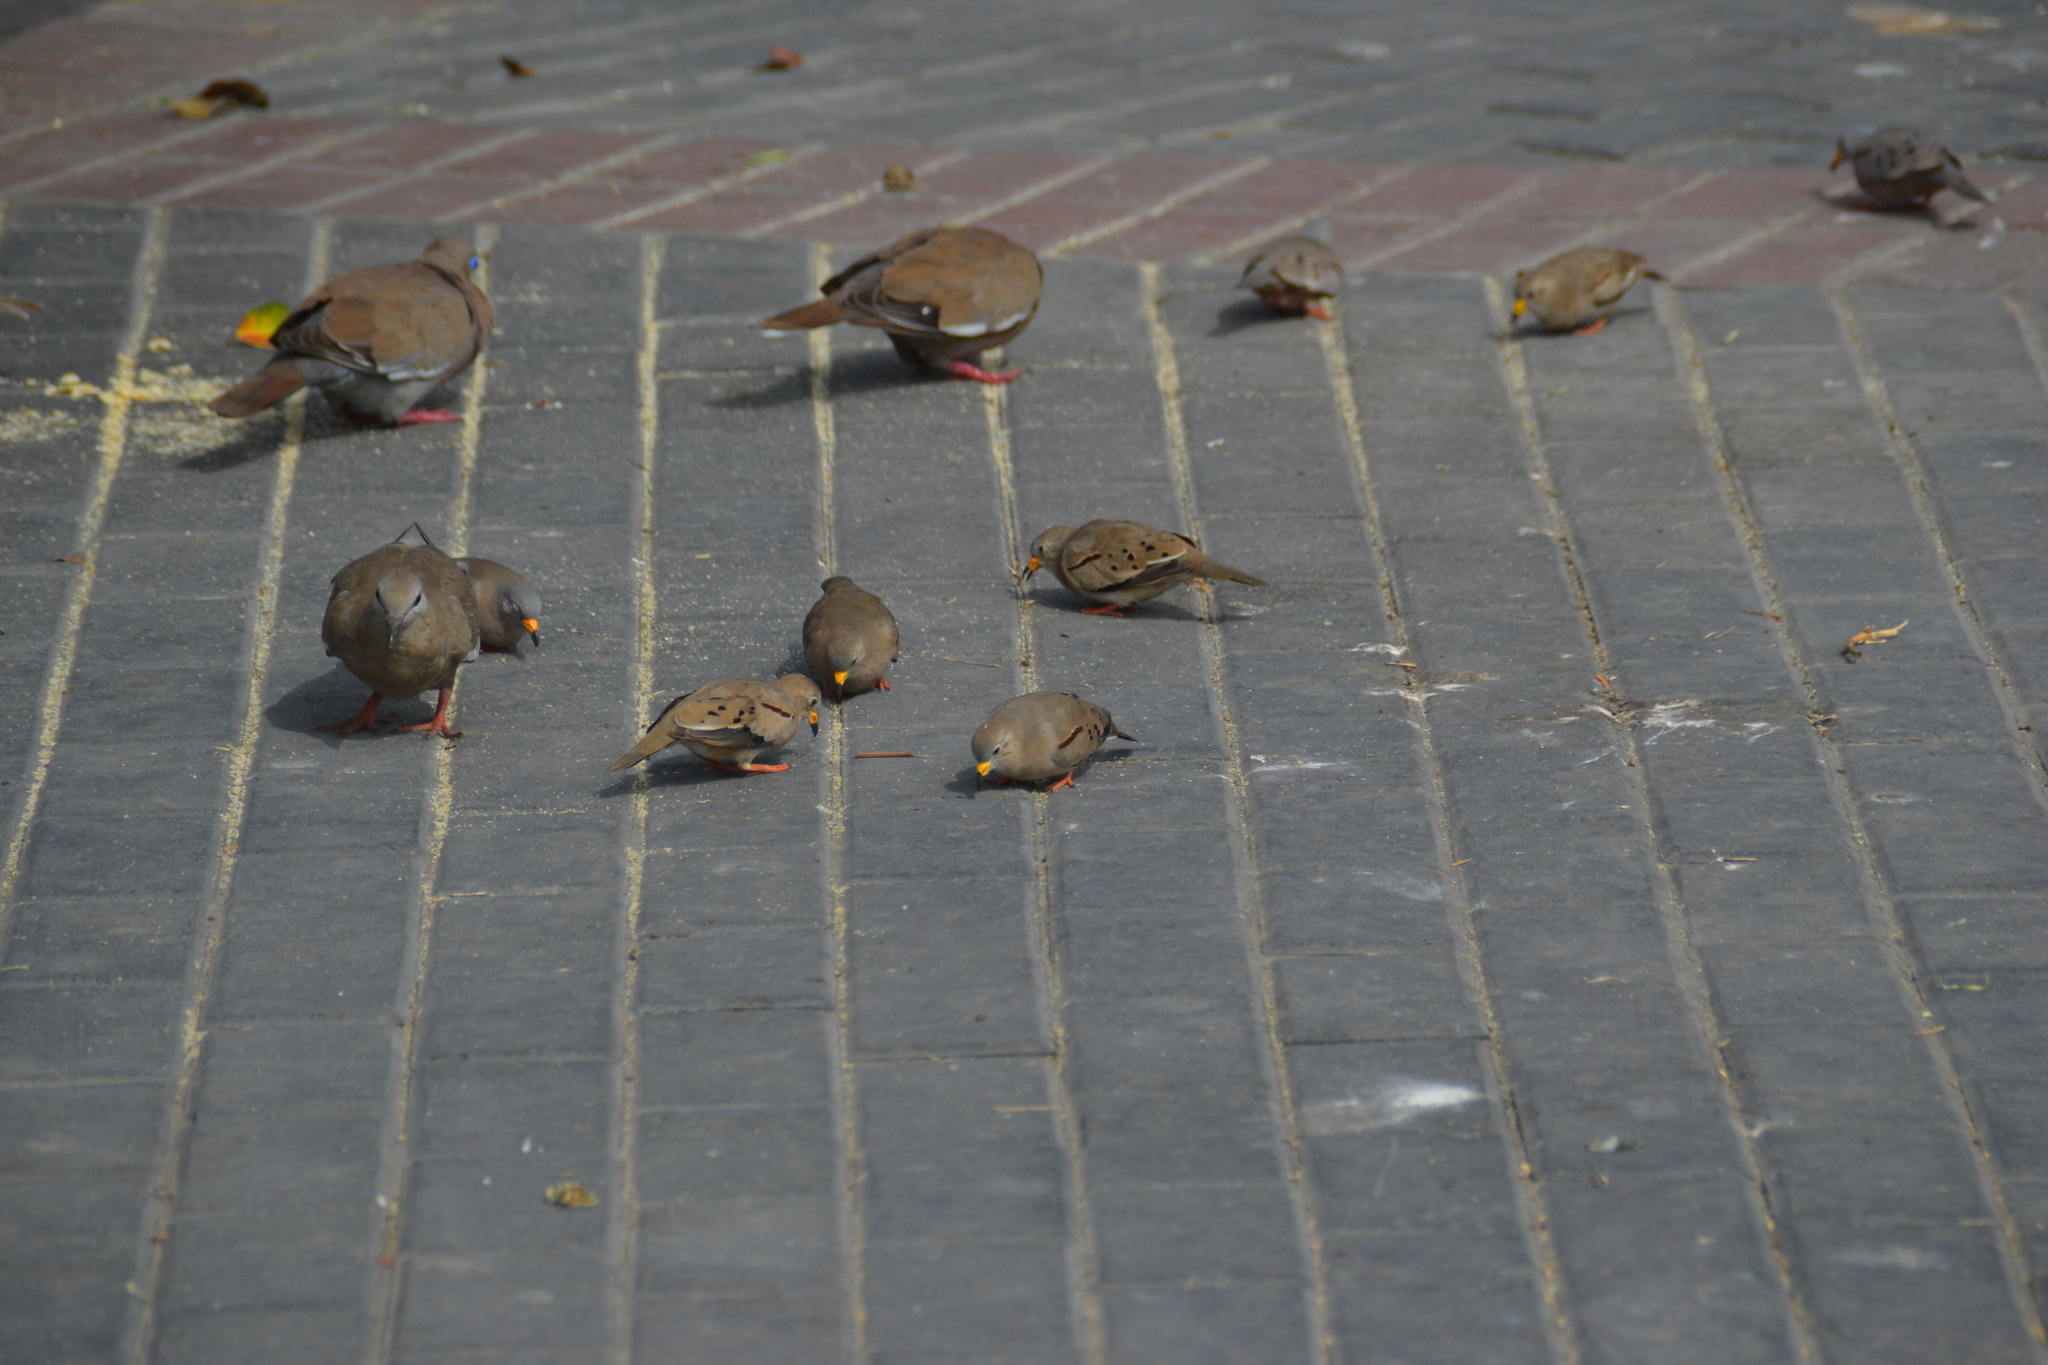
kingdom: Animalia
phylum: Chordata
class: Aves
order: Columbiformes
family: Columbidae
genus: Columbina
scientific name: Columbina cruziana
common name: Croaking ground dove
